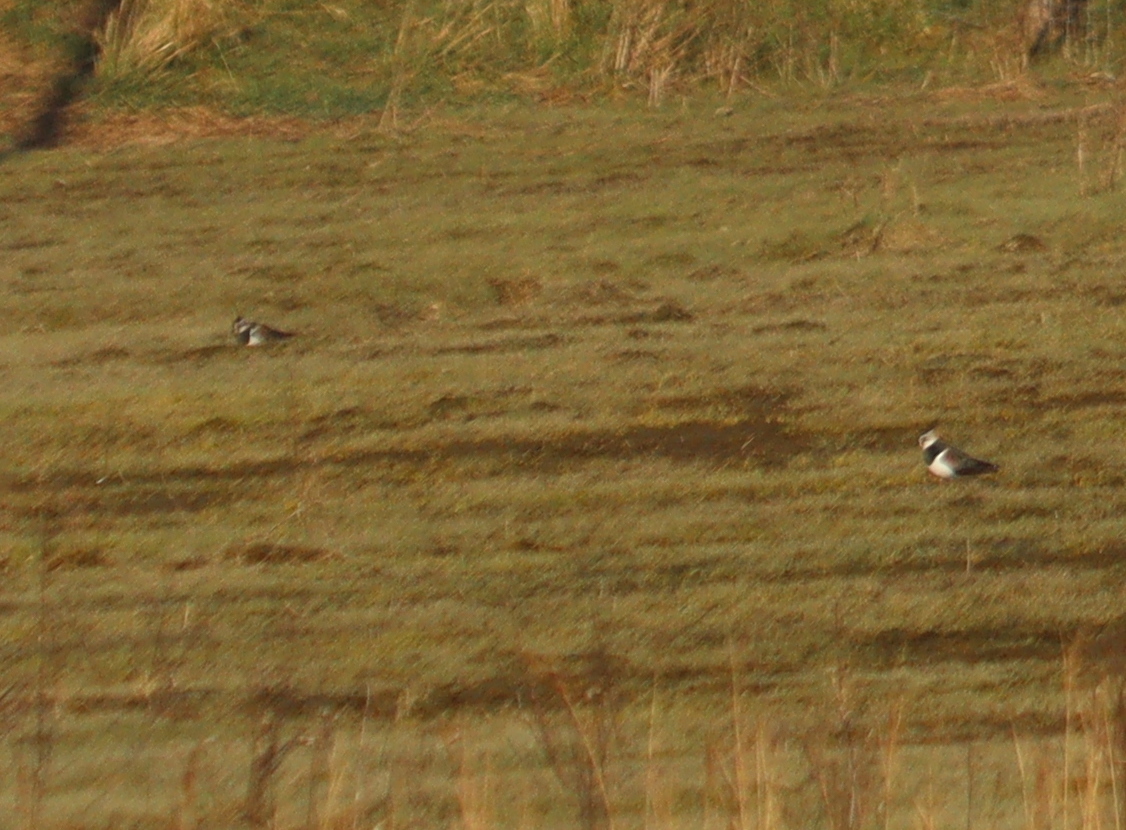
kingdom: Animalia
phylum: Chordata
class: Aves
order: Charadriiformes
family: Charadriidae
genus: Vanellus
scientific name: Vanellus vanellus
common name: Northern lapwing
